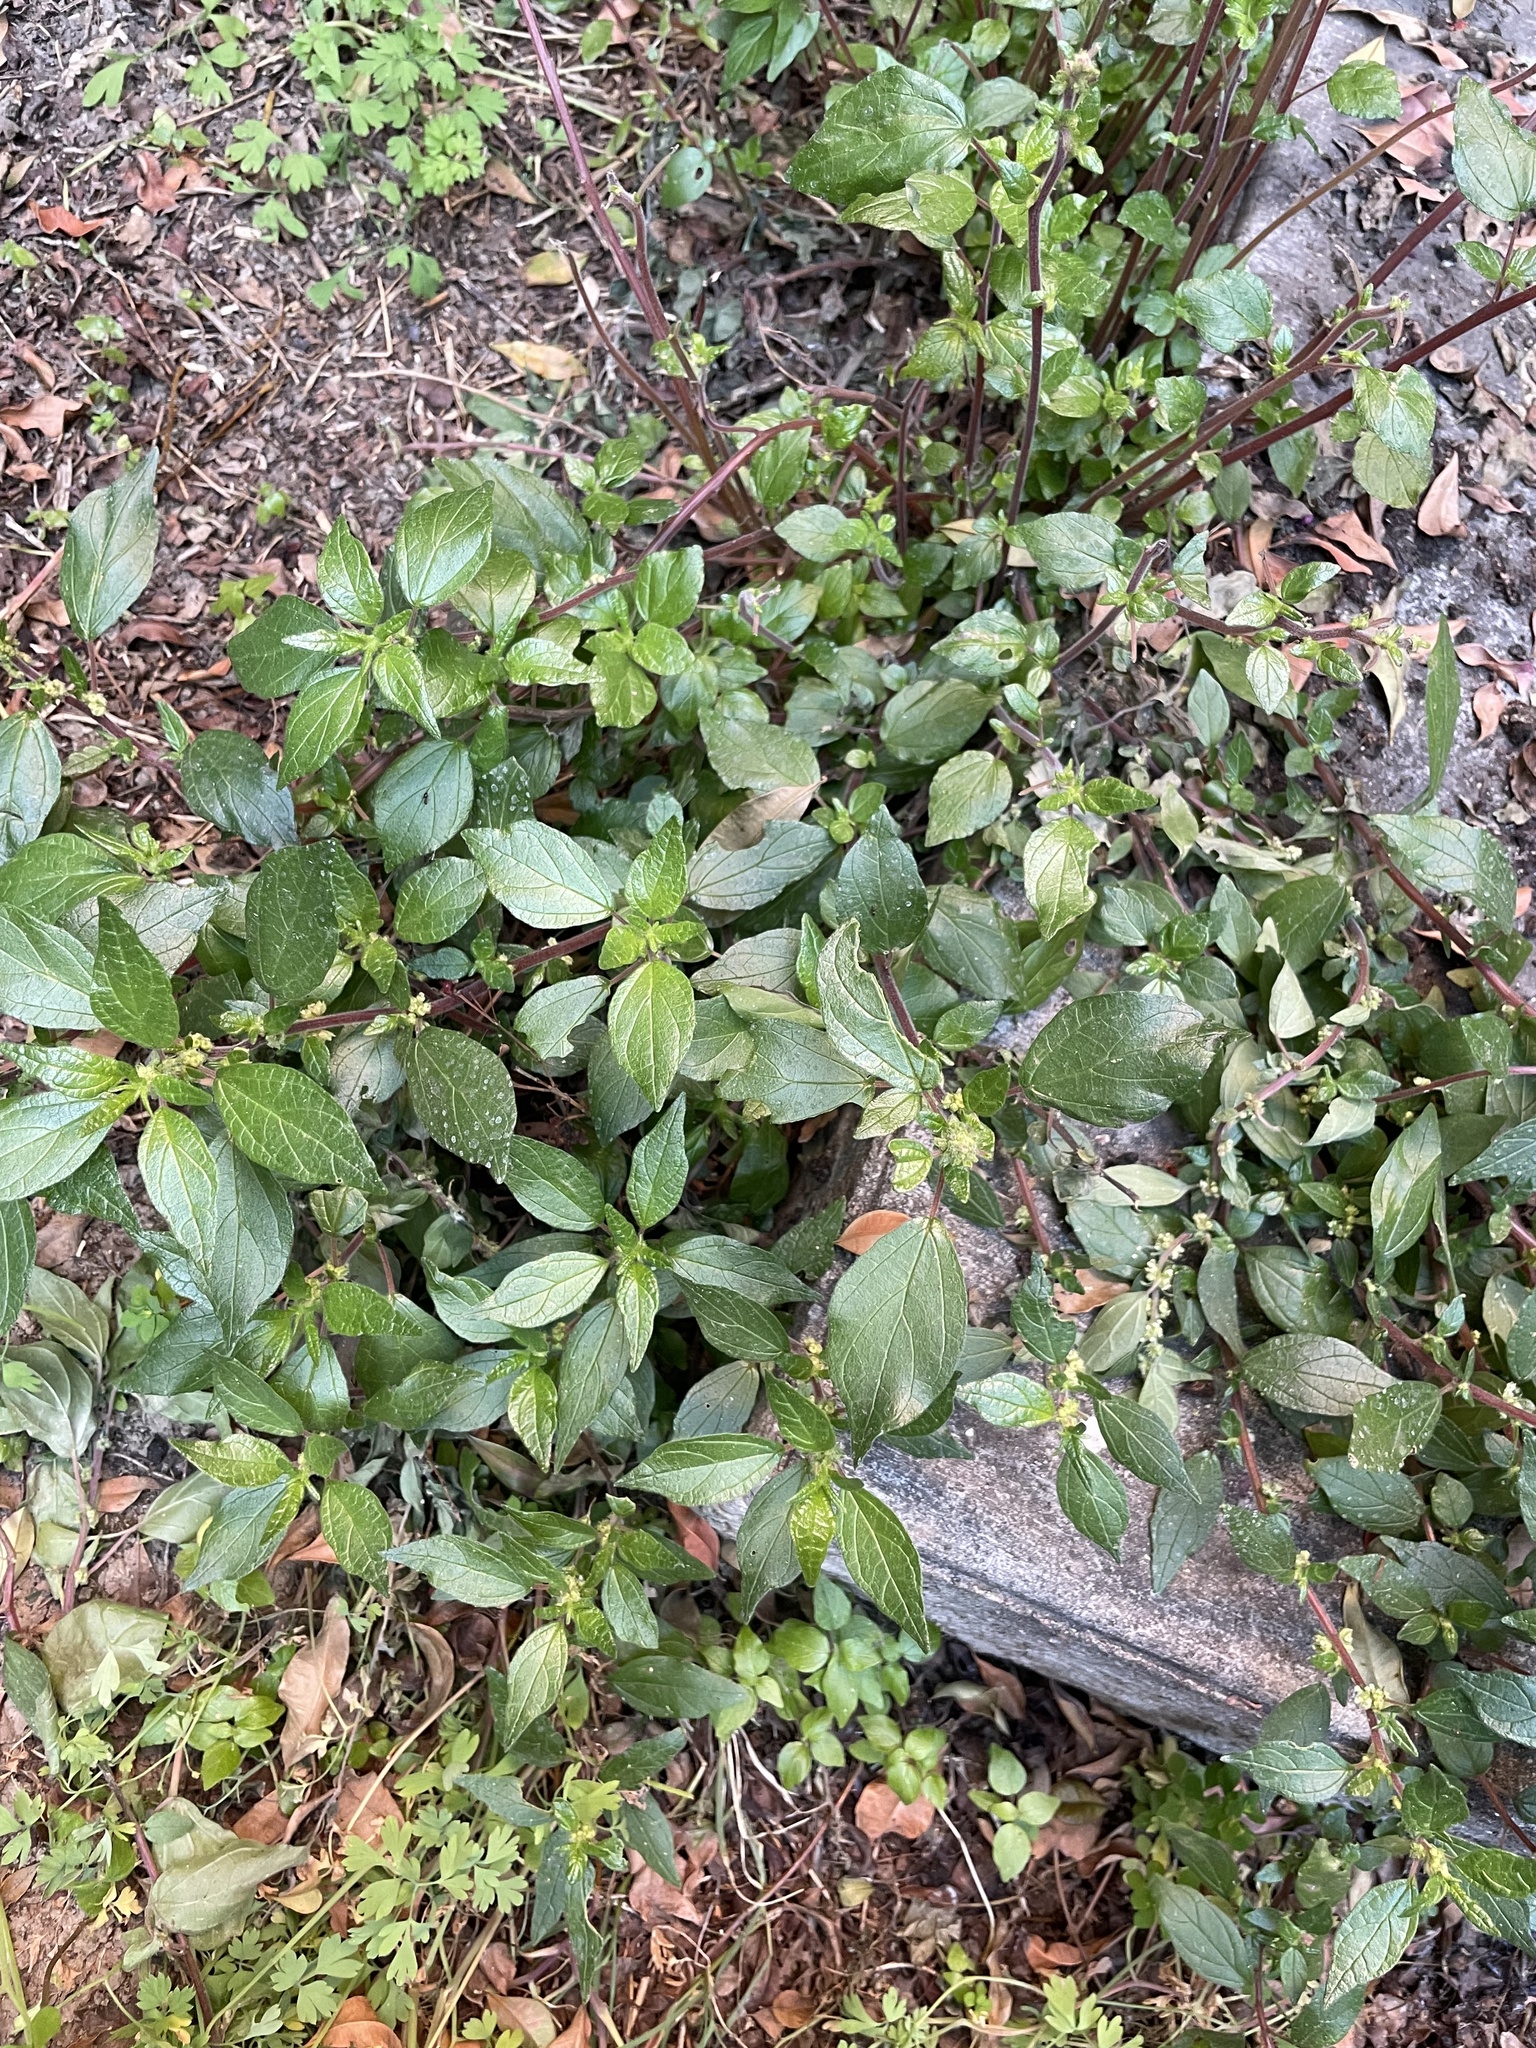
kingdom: Plantae
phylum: Tracheophyta
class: Magnoliopsida
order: Rosales
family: Urticaceae
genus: Parietaria
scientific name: Parietaria judaica
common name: Pellitory-of-the-wall
